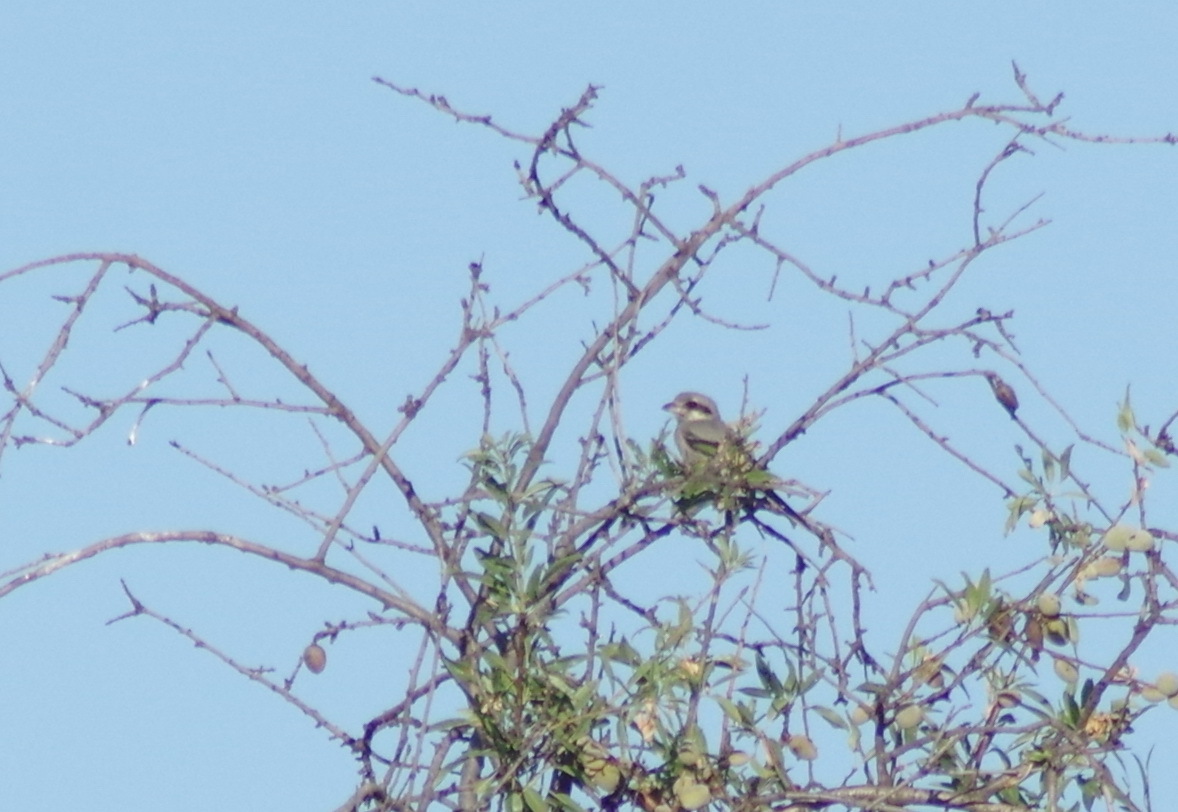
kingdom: Animalia
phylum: Chordata
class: Aves
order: Passeriformes
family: Laniidae
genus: Lanius
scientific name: Lanius meridionalis
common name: Iberian grey shrike
